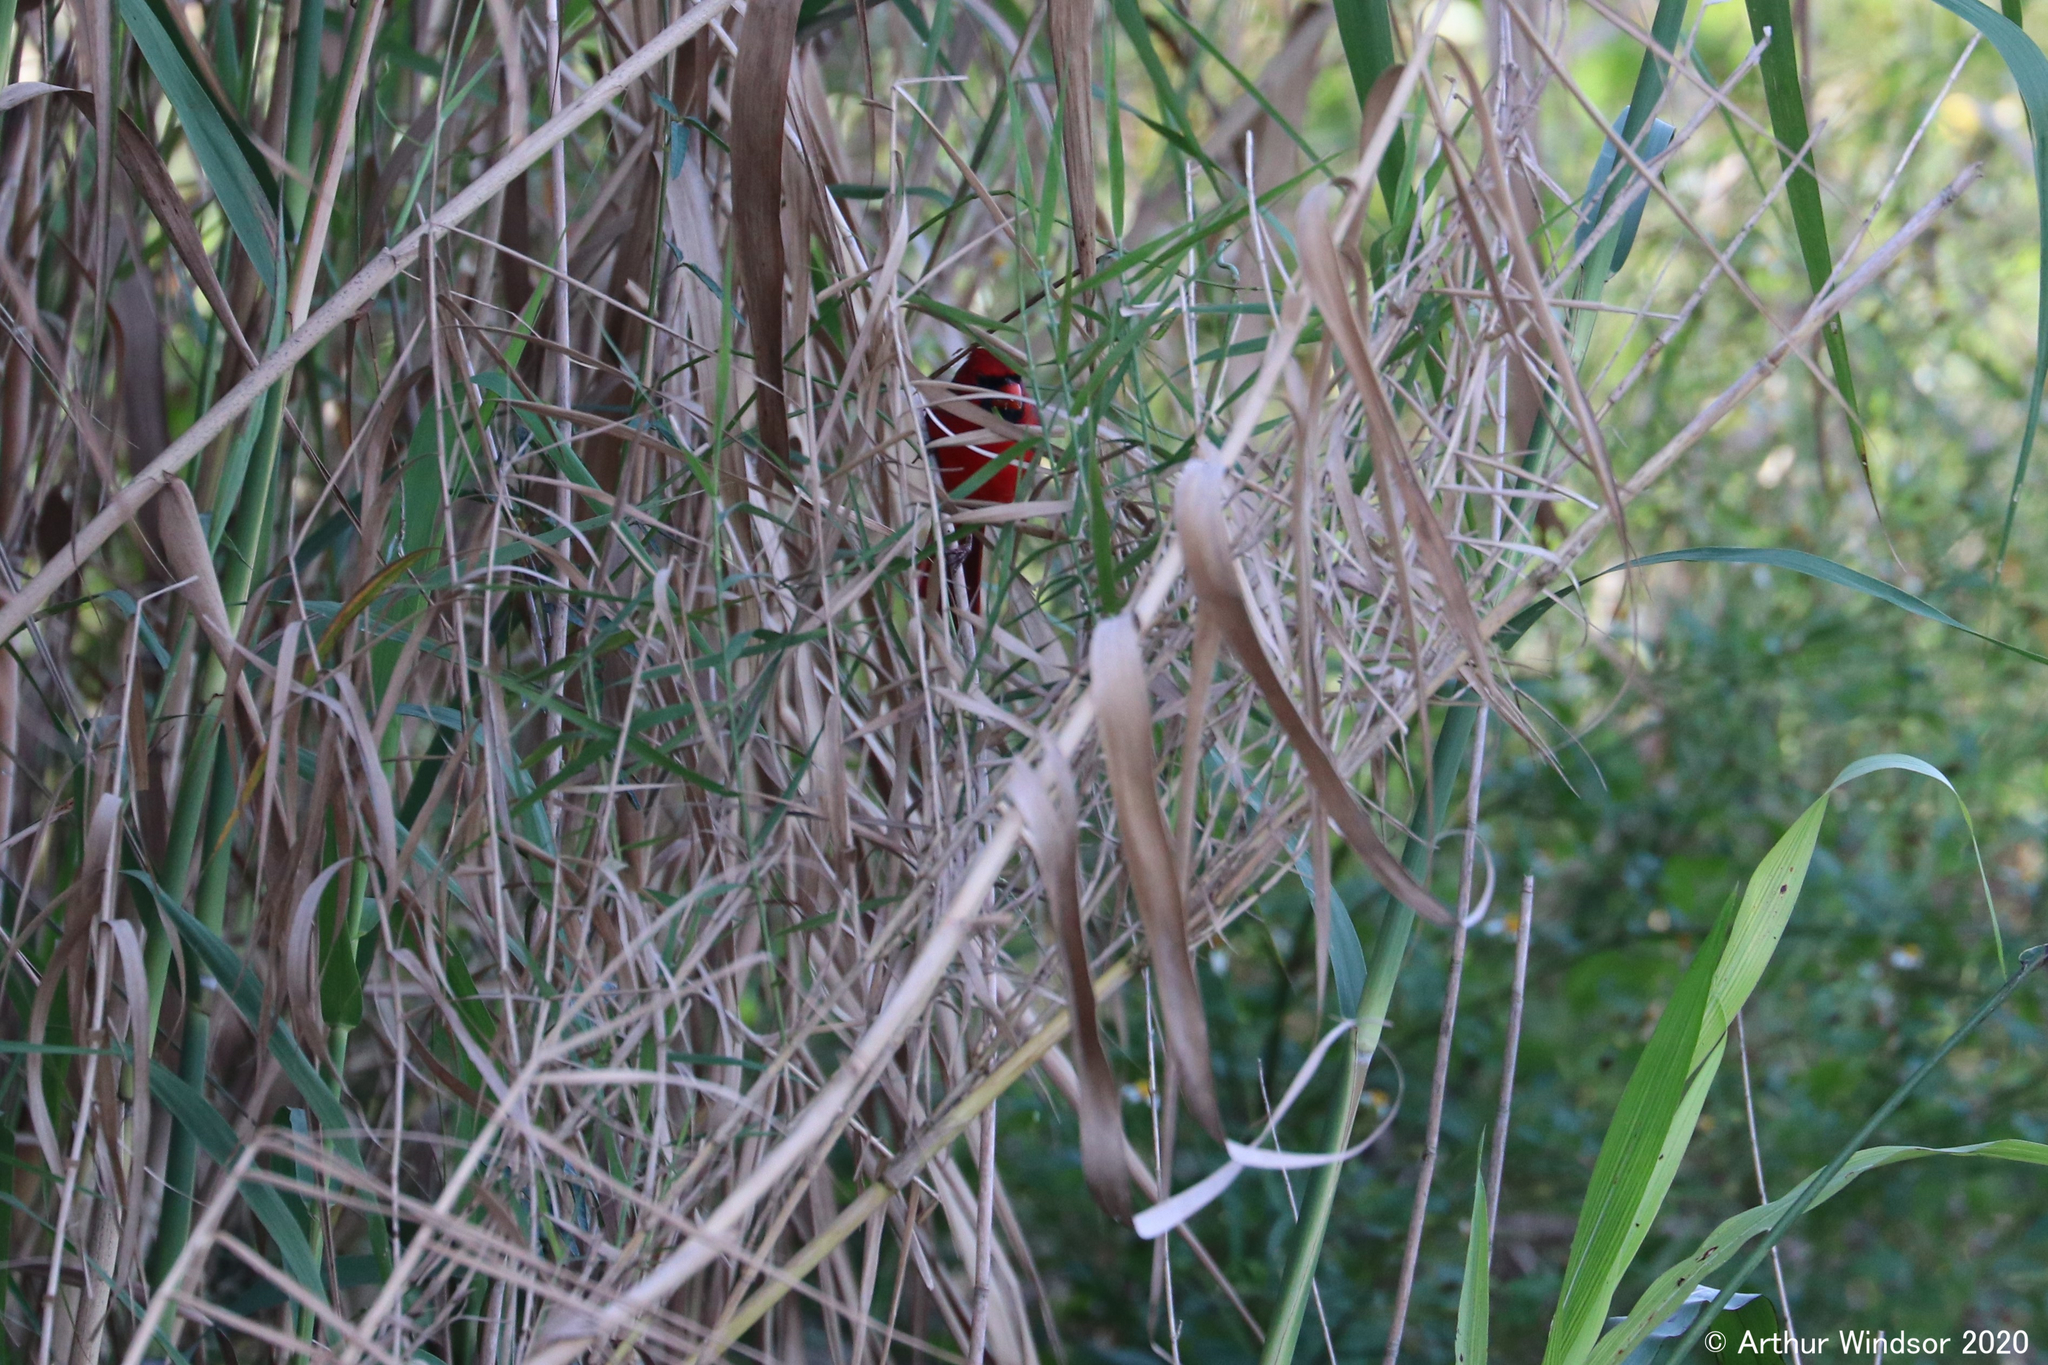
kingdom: Animalia
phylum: Chordata
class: Aves
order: Passeriformes
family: Cardinalidae
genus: Cardinalis
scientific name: Cardinalis cardinalis
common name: Northern cardinal
